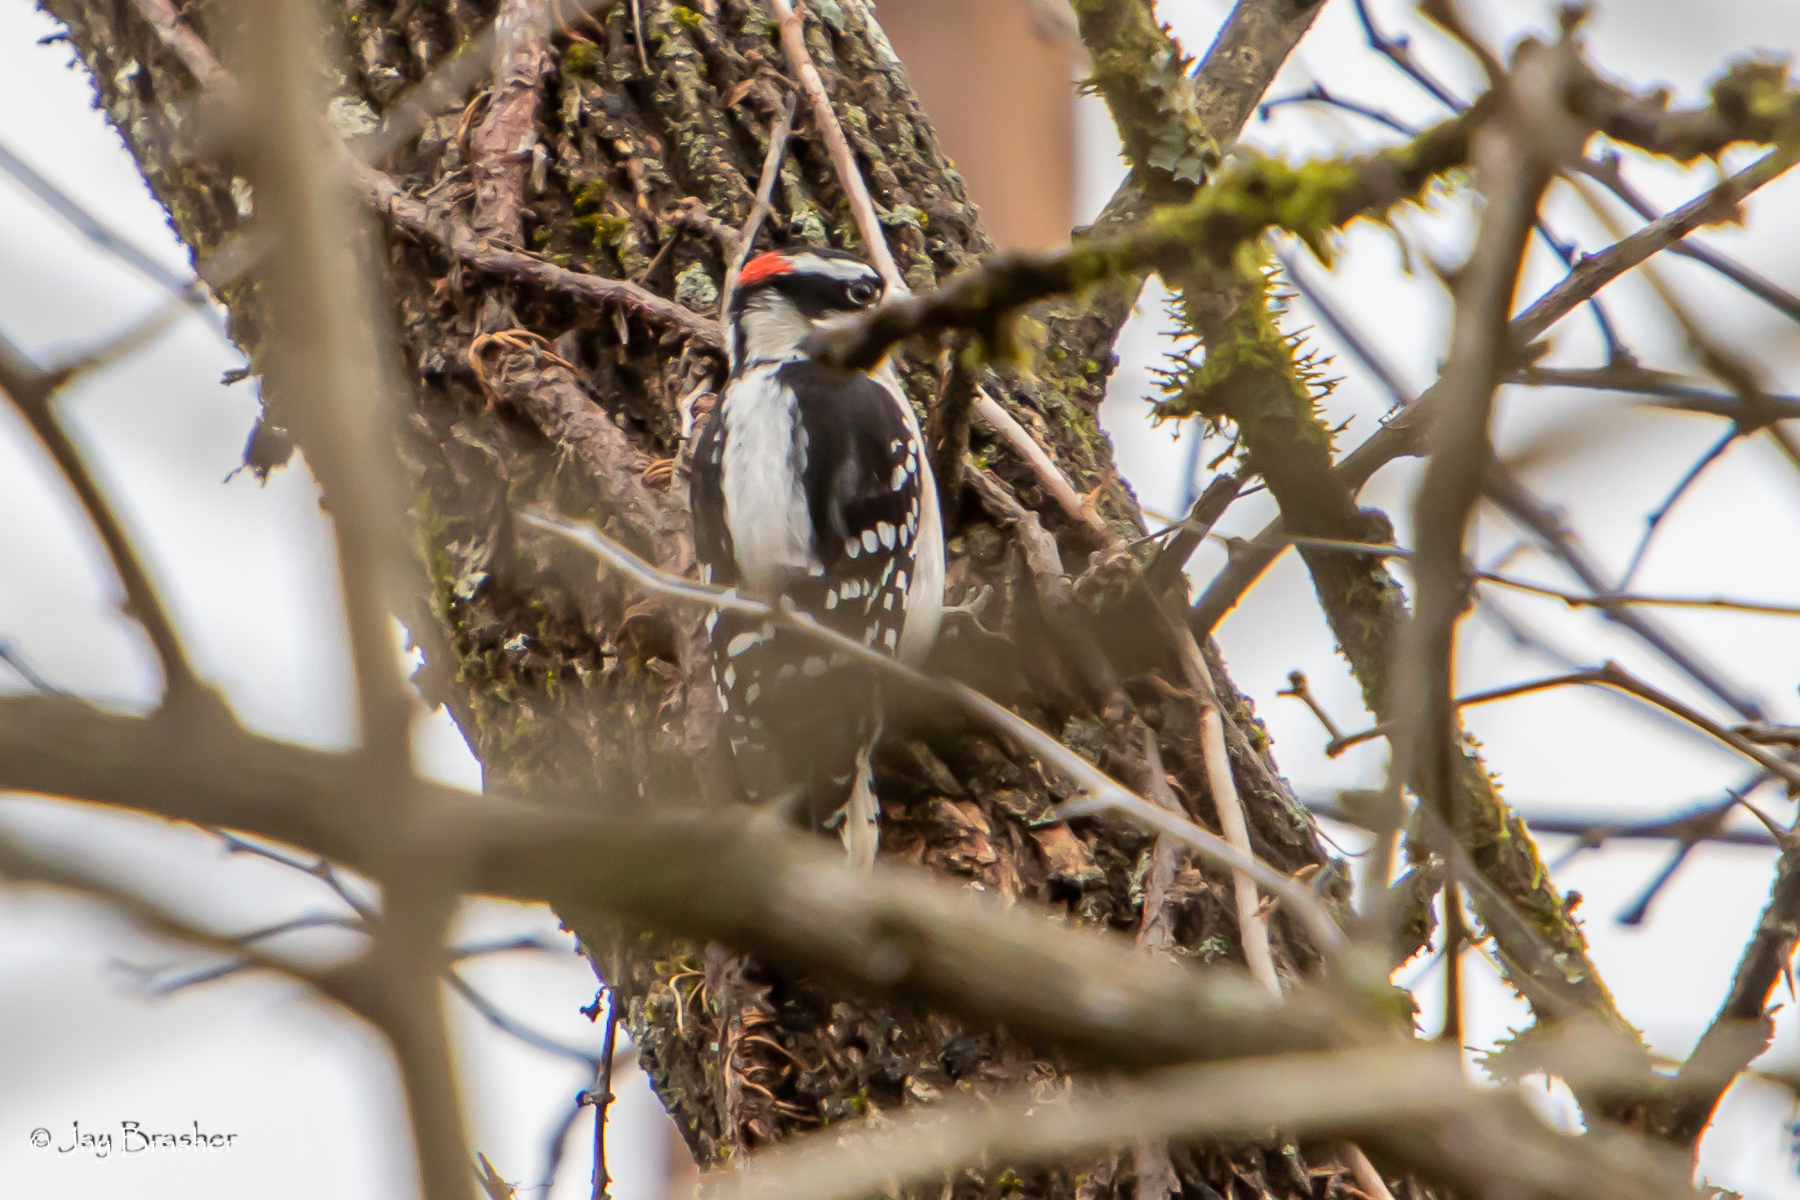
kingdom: Animalia
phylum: Chordata
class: Aves
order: Piciformes
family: Picidae
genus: Dryobates
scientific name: Dryobates pubescens
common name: Downy woodpecker
